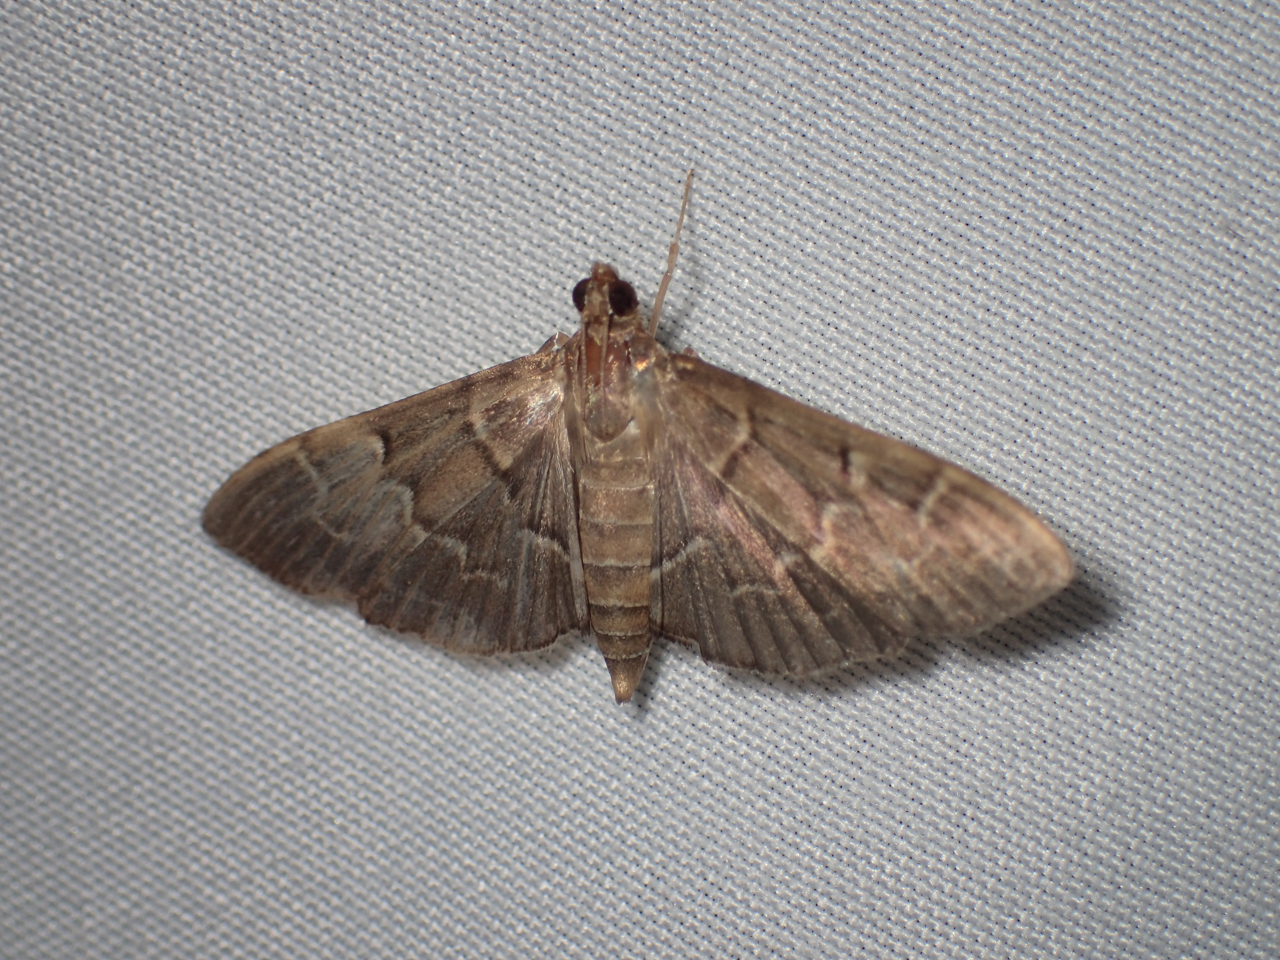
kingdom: Animalia
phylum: Arthropoda
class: Insecta
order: Lepidoptera
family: Crambidae
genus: Pilocrocis
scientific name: Pilocrocis ramentalis
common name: Scraped pilocrocis
